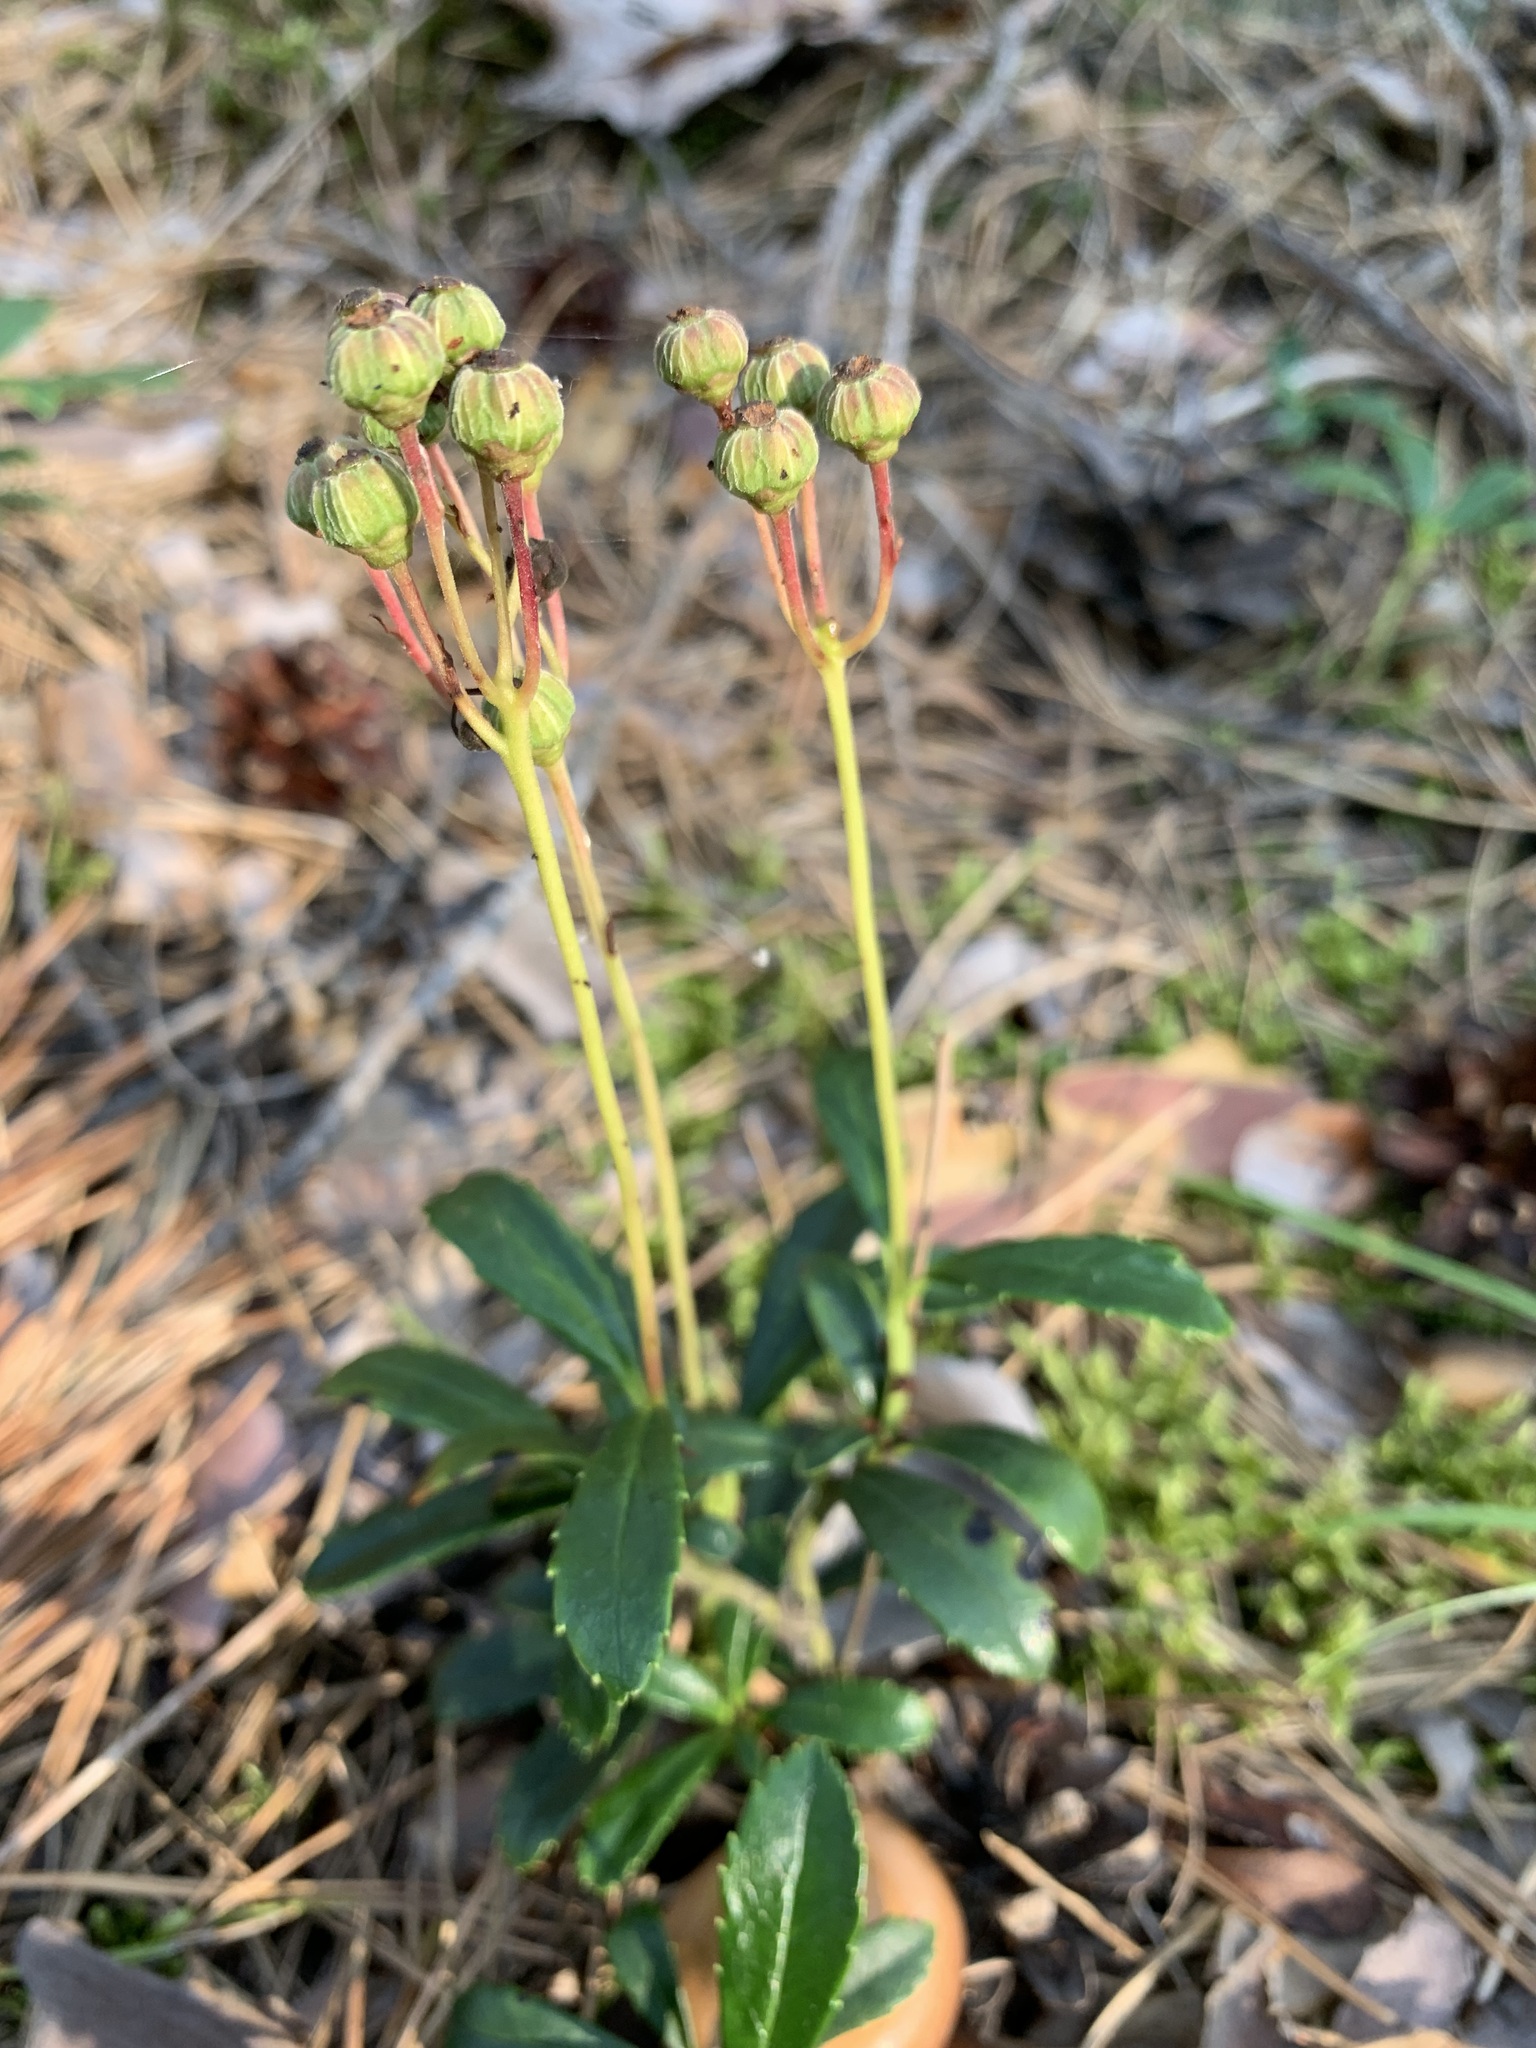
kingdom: Plantae
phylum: Tracheophyta
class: Magnoliopsida
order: Ericales
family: Ericaceae
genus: Chimaphila
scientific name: Chimaphila umbellata
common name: Pipsissewa
